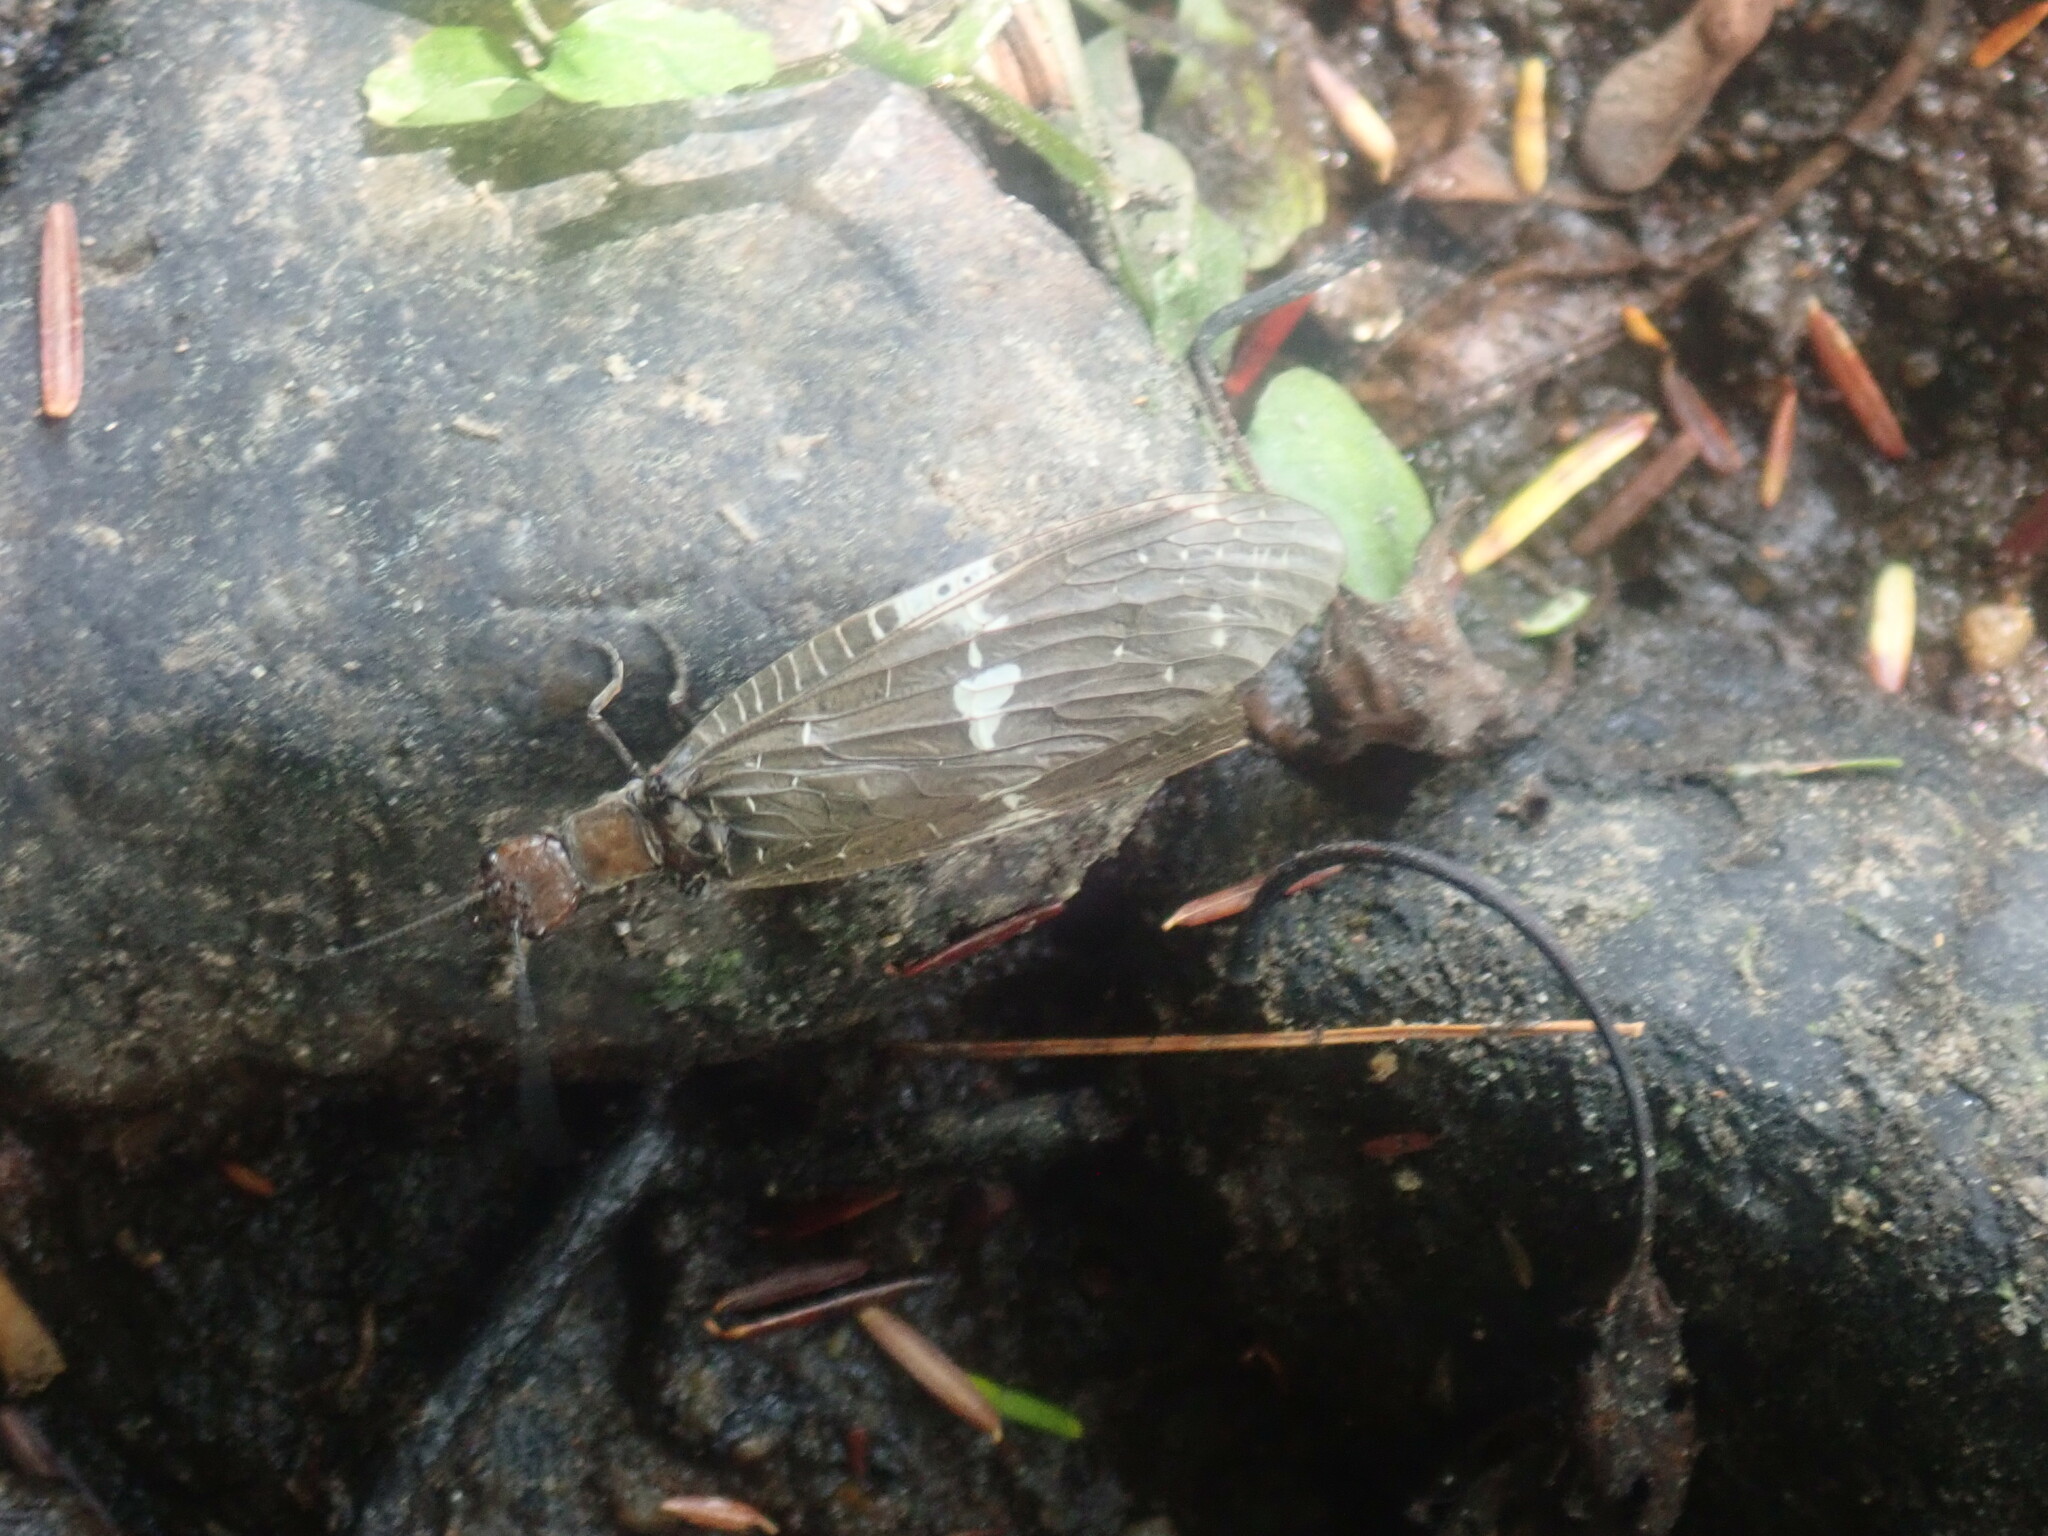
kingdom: Animalia
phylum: Arthropoda
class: Insecta
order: Megaloptera
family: Corydalidae
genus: Nigronia
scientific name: Nigronia serricornis
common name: Serrate dark fishfly
